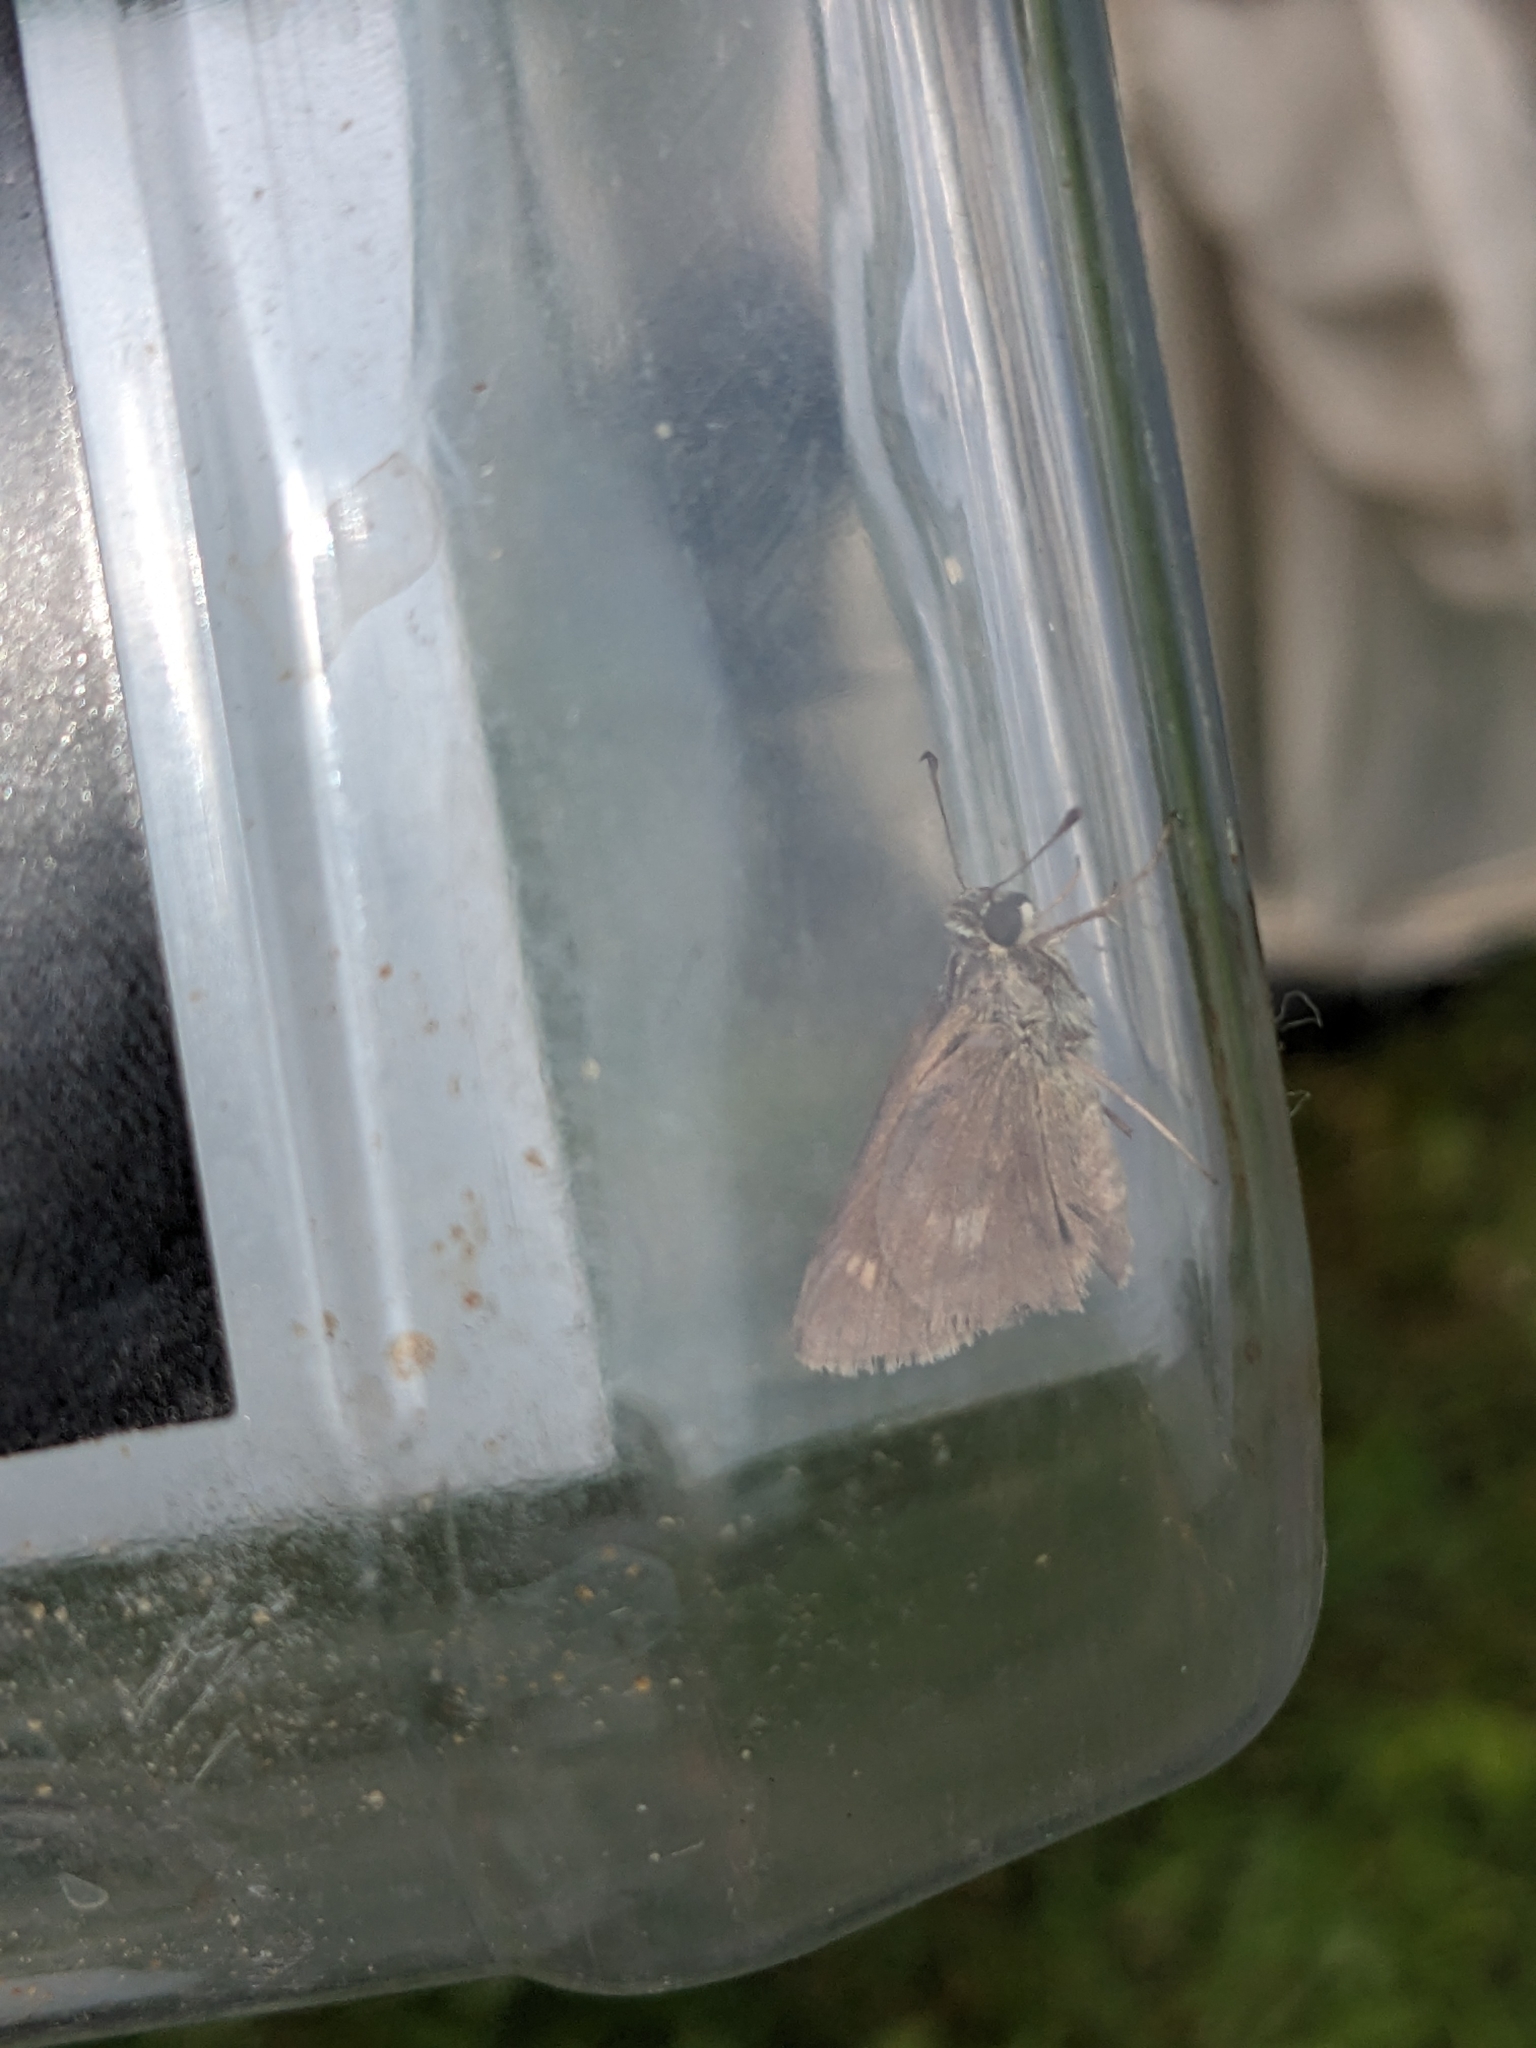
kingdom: Animalia
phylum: Arthropoda
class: Insecta
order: Lepidoptera
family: Hesperiidae
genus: Polites
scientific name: Polites egeremet
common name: Northern broken-dash
